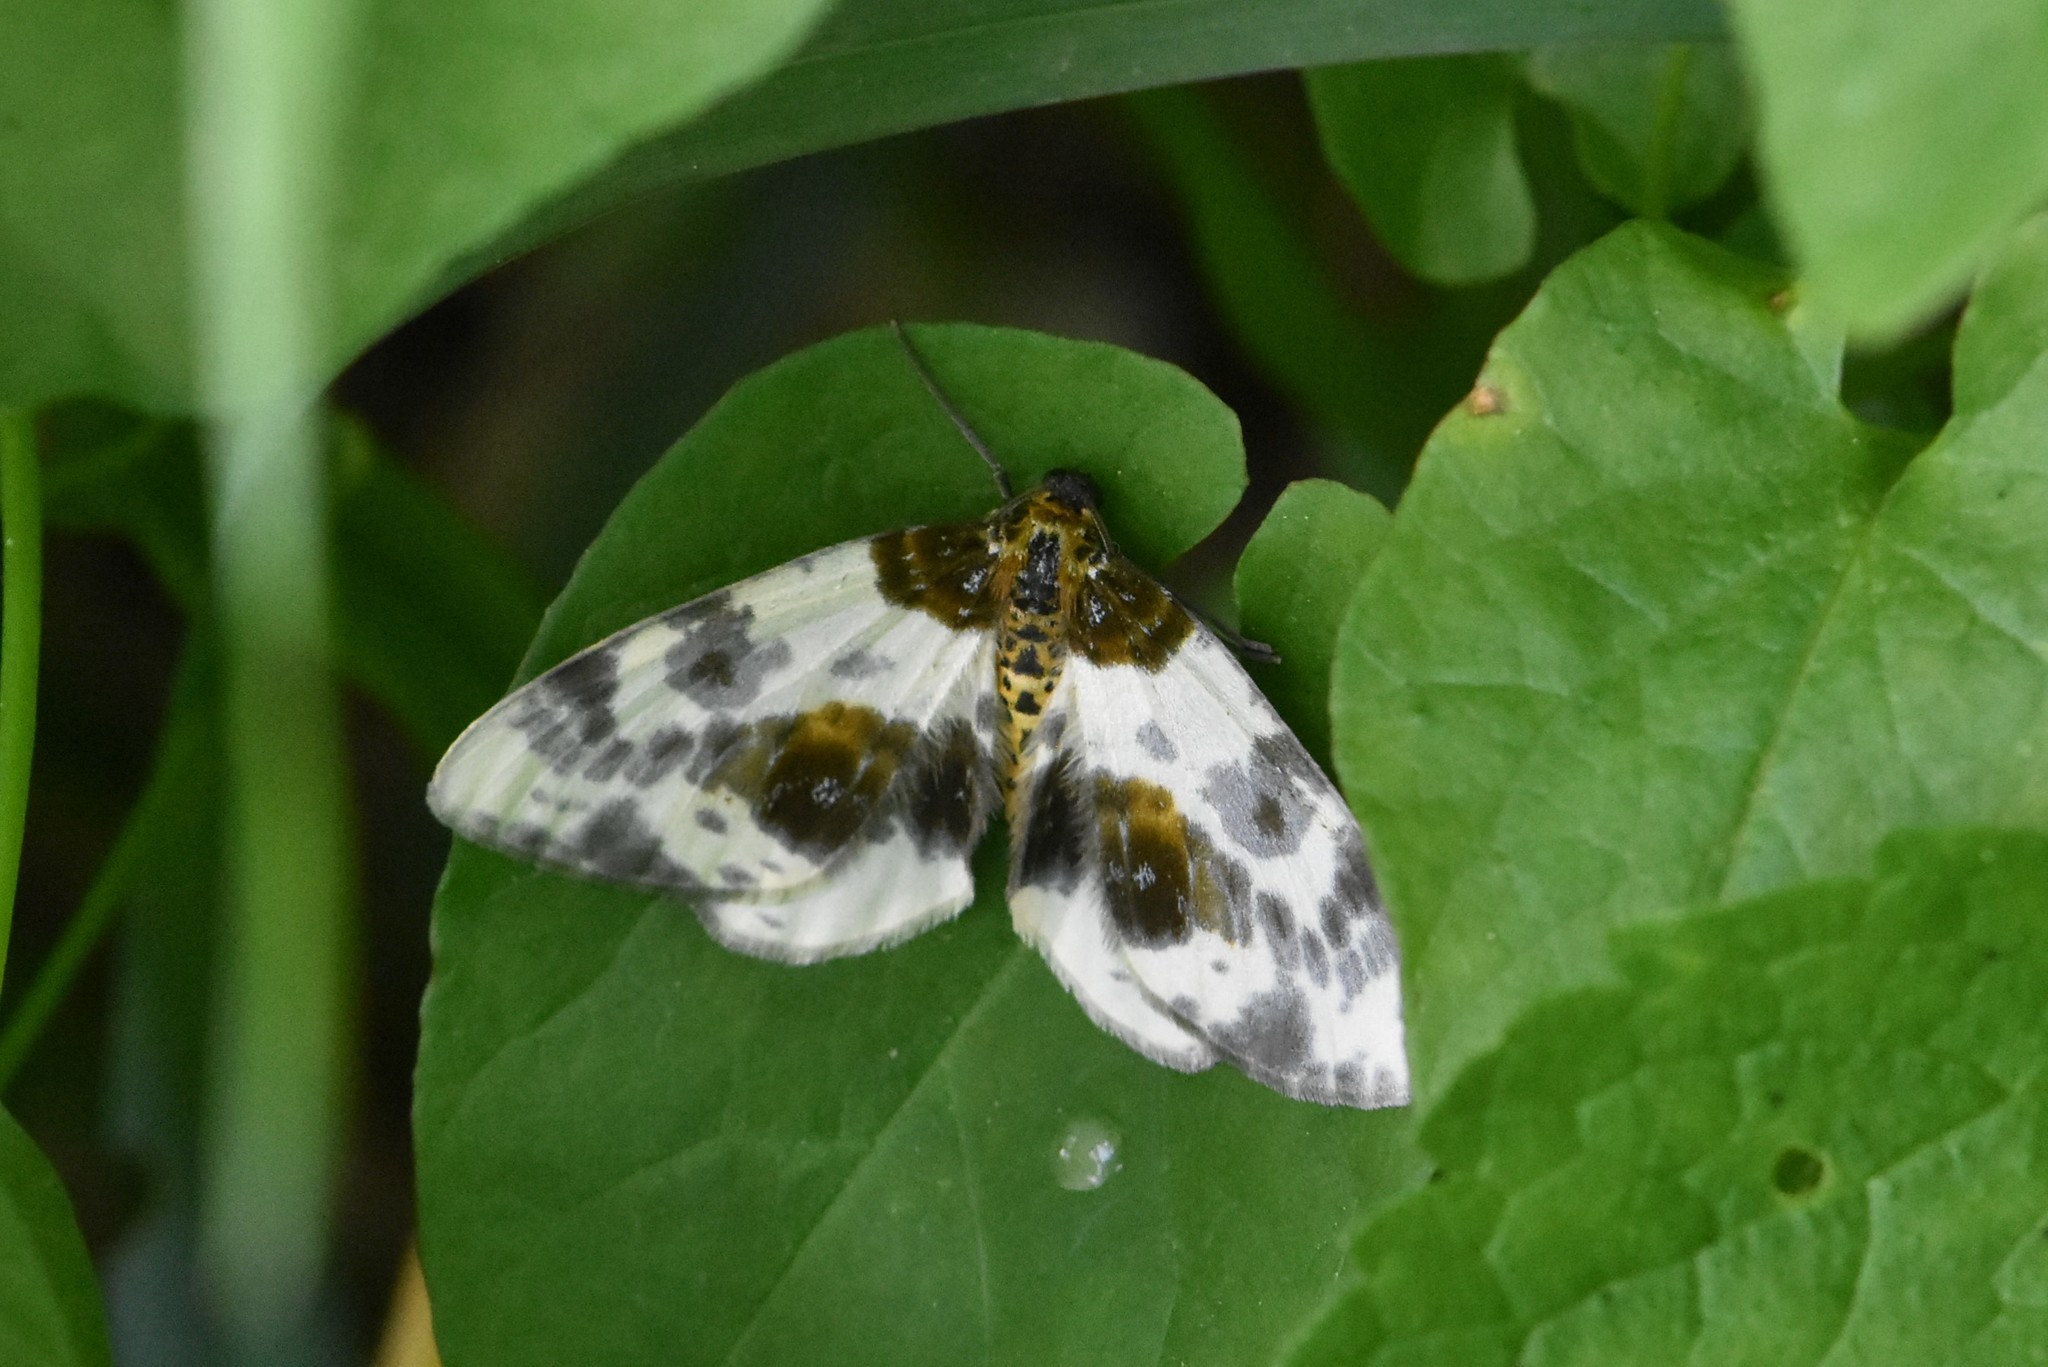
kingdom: Animalia
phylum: Arthropoda
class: Insecta
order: Lepidoptera
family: Geometridae
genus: Abraxas
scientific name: Abraxas sylvata
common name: Clouded magpie
